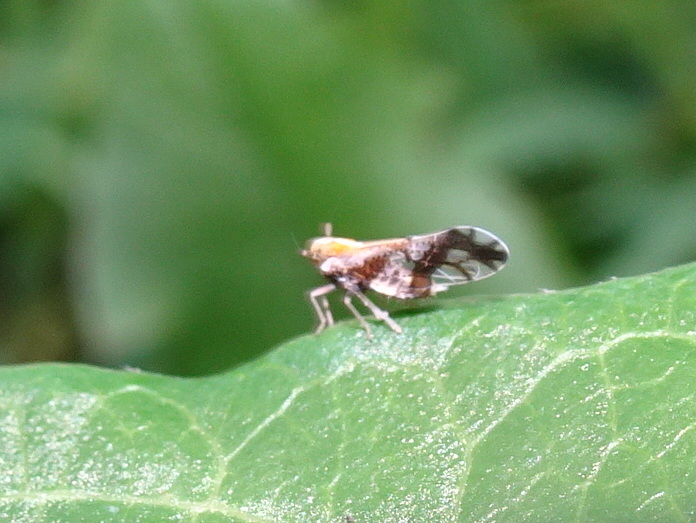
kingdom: Animalia
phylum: Arthropoda
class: Insecta
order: Hemiptera
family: Delphacidae
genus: Liburniella
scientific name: Liburniella ornata
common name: Ornate planthopper
